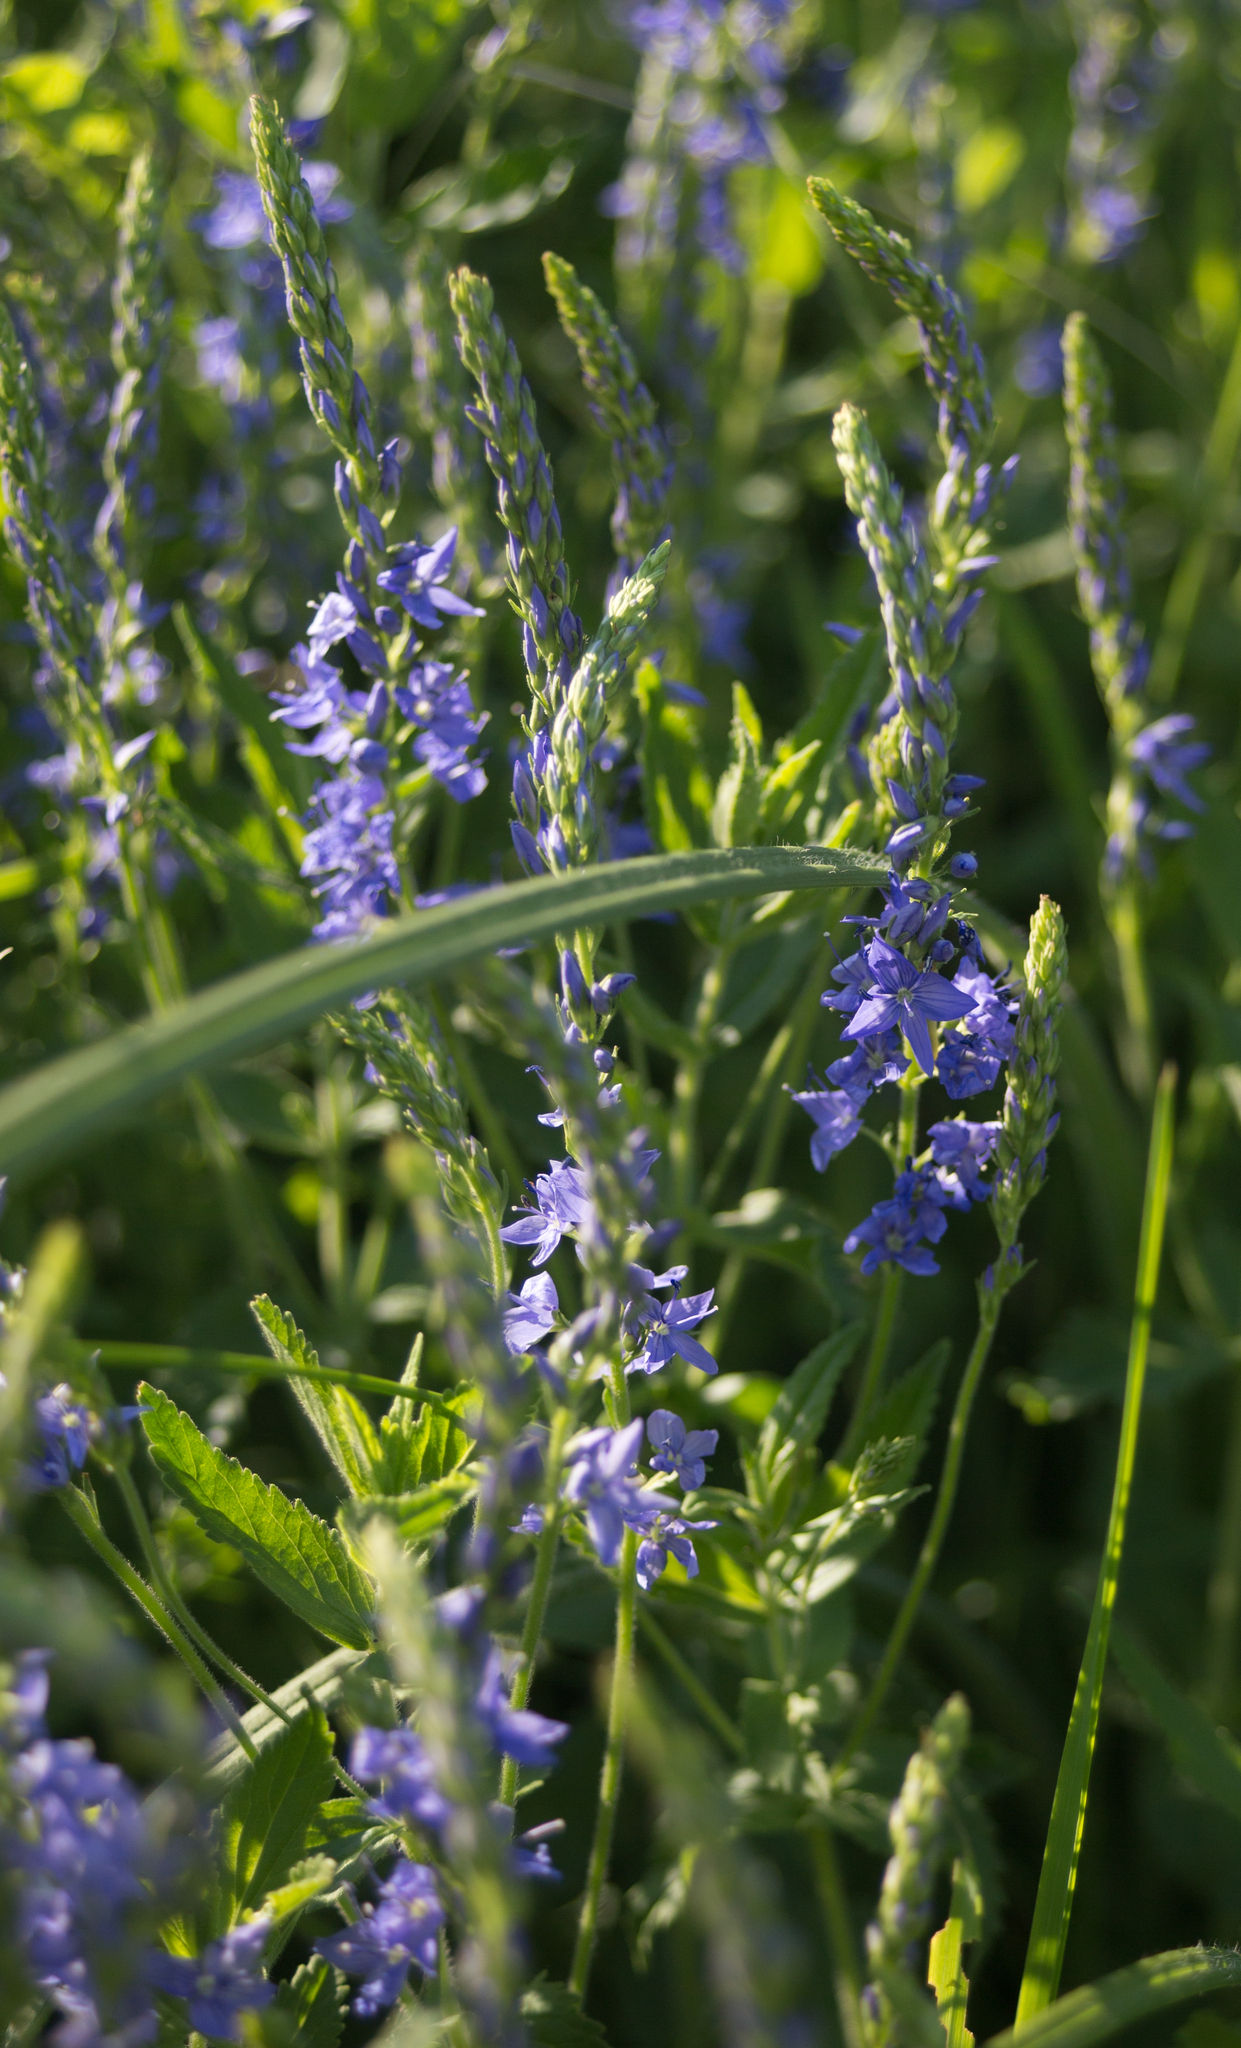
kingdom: Plantae
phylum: Tracheophyta
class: Magnoliopsida
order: Lamiales
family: Plantaginaceae
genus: Veronica
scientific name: Veronica teucrium
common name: Large speedwell
